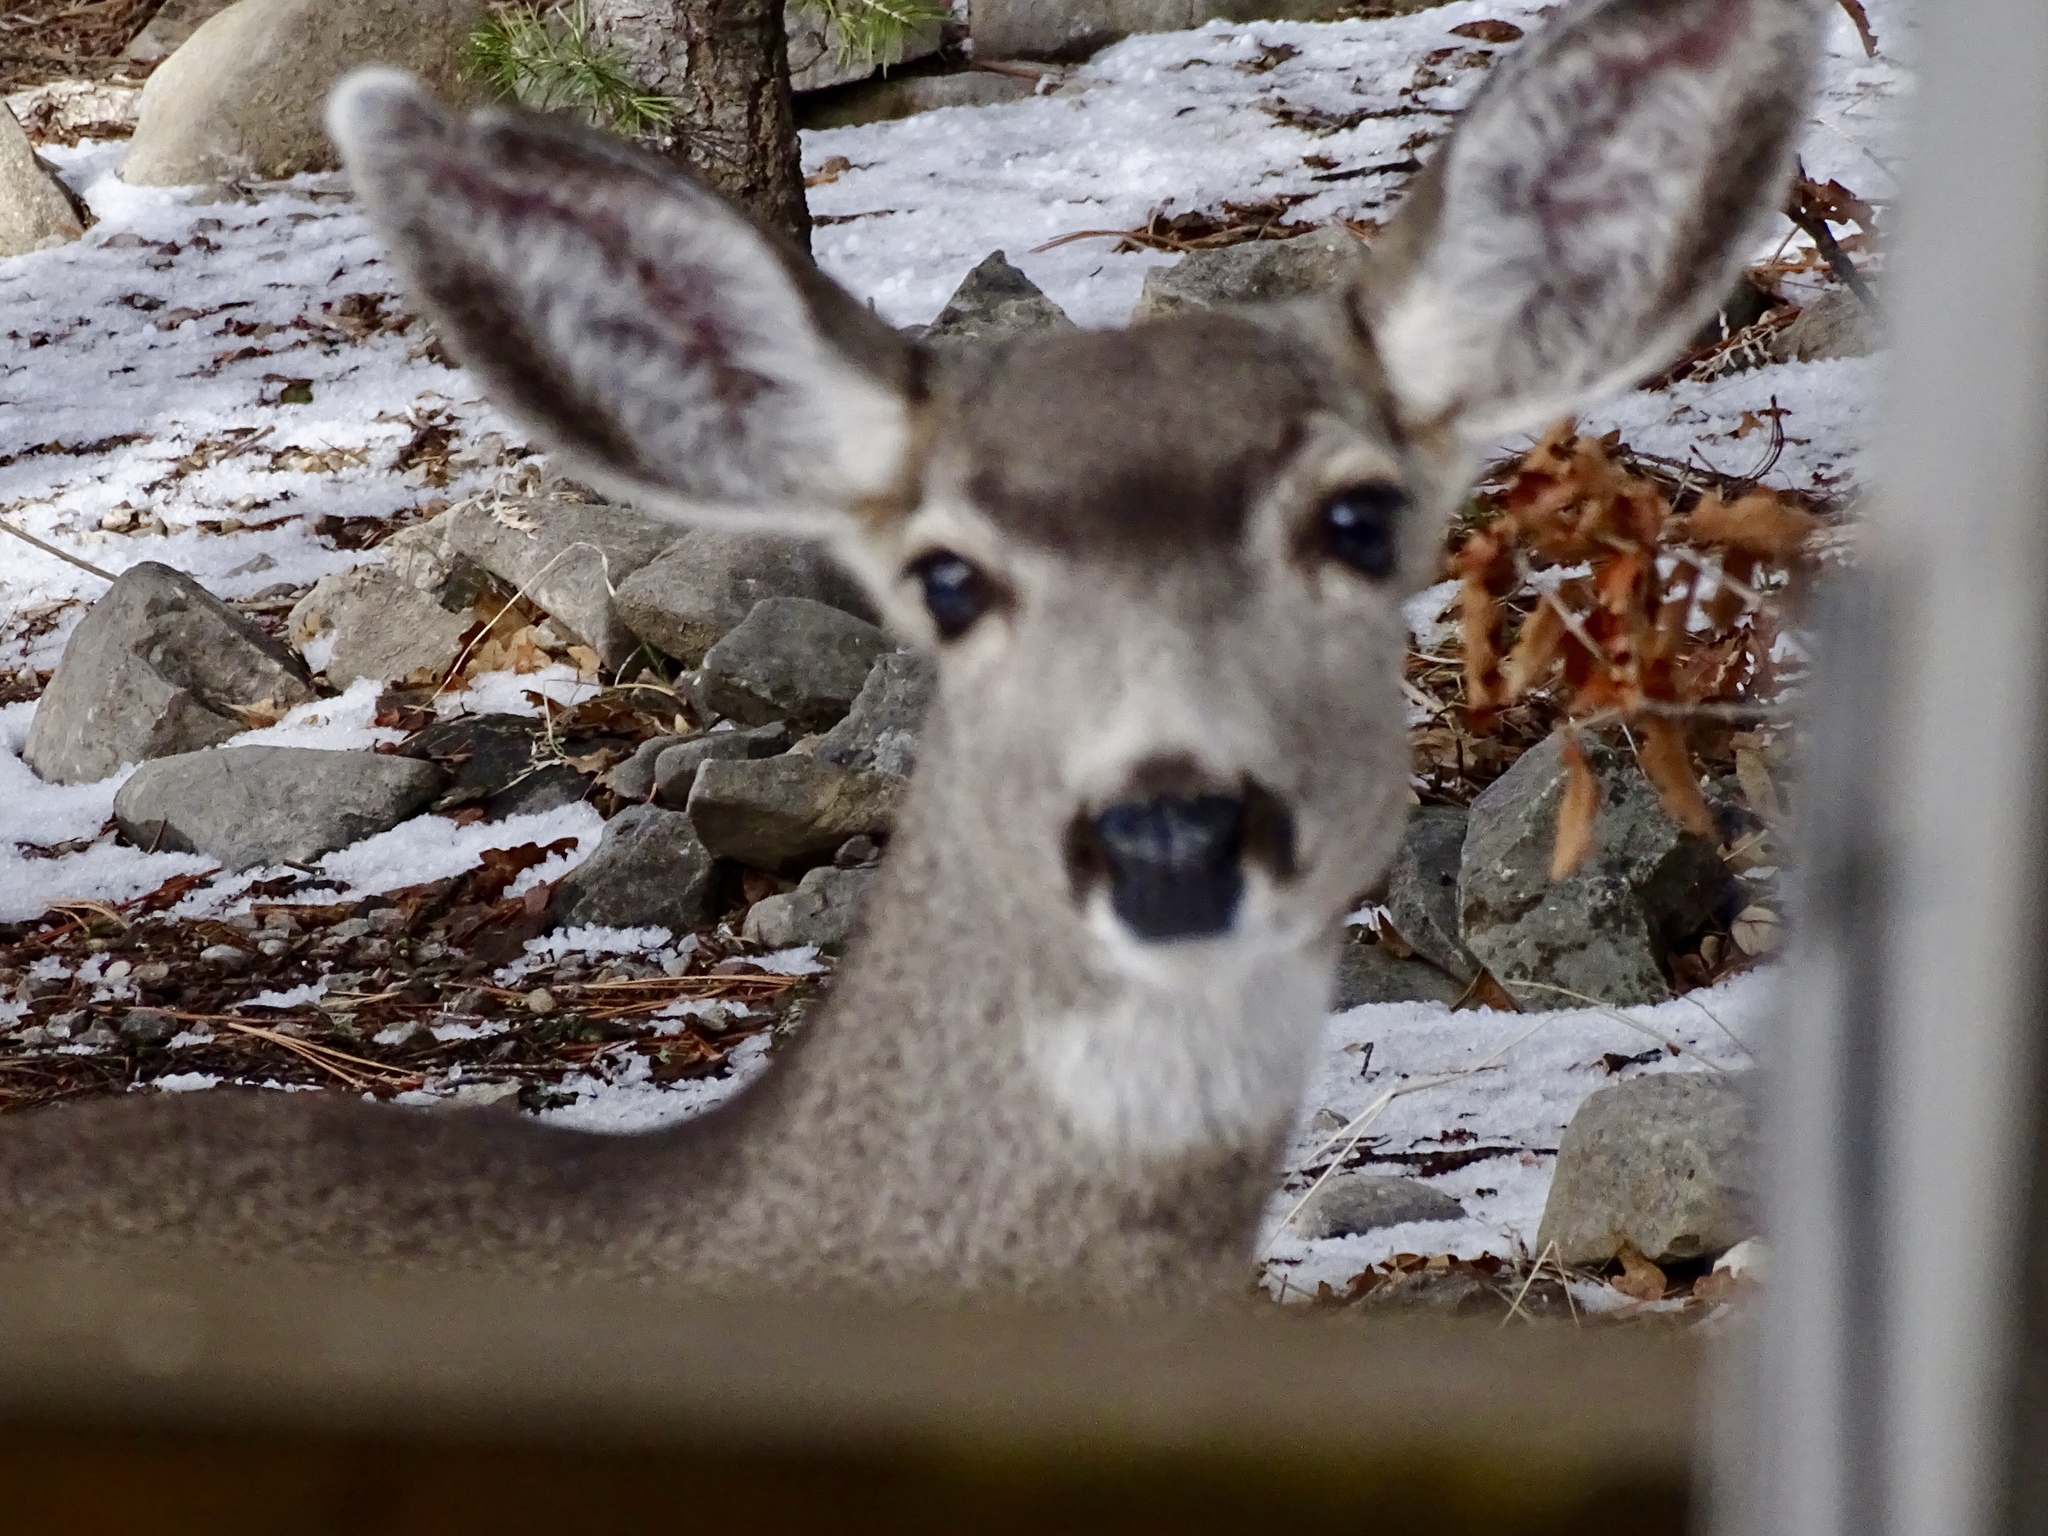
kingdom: Animalia
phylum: Chordata
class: Mammalia
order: Artiodactyla
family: Cervidae
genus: Odocoileus
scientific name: Odocoileus hemionus
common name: Mule deer
